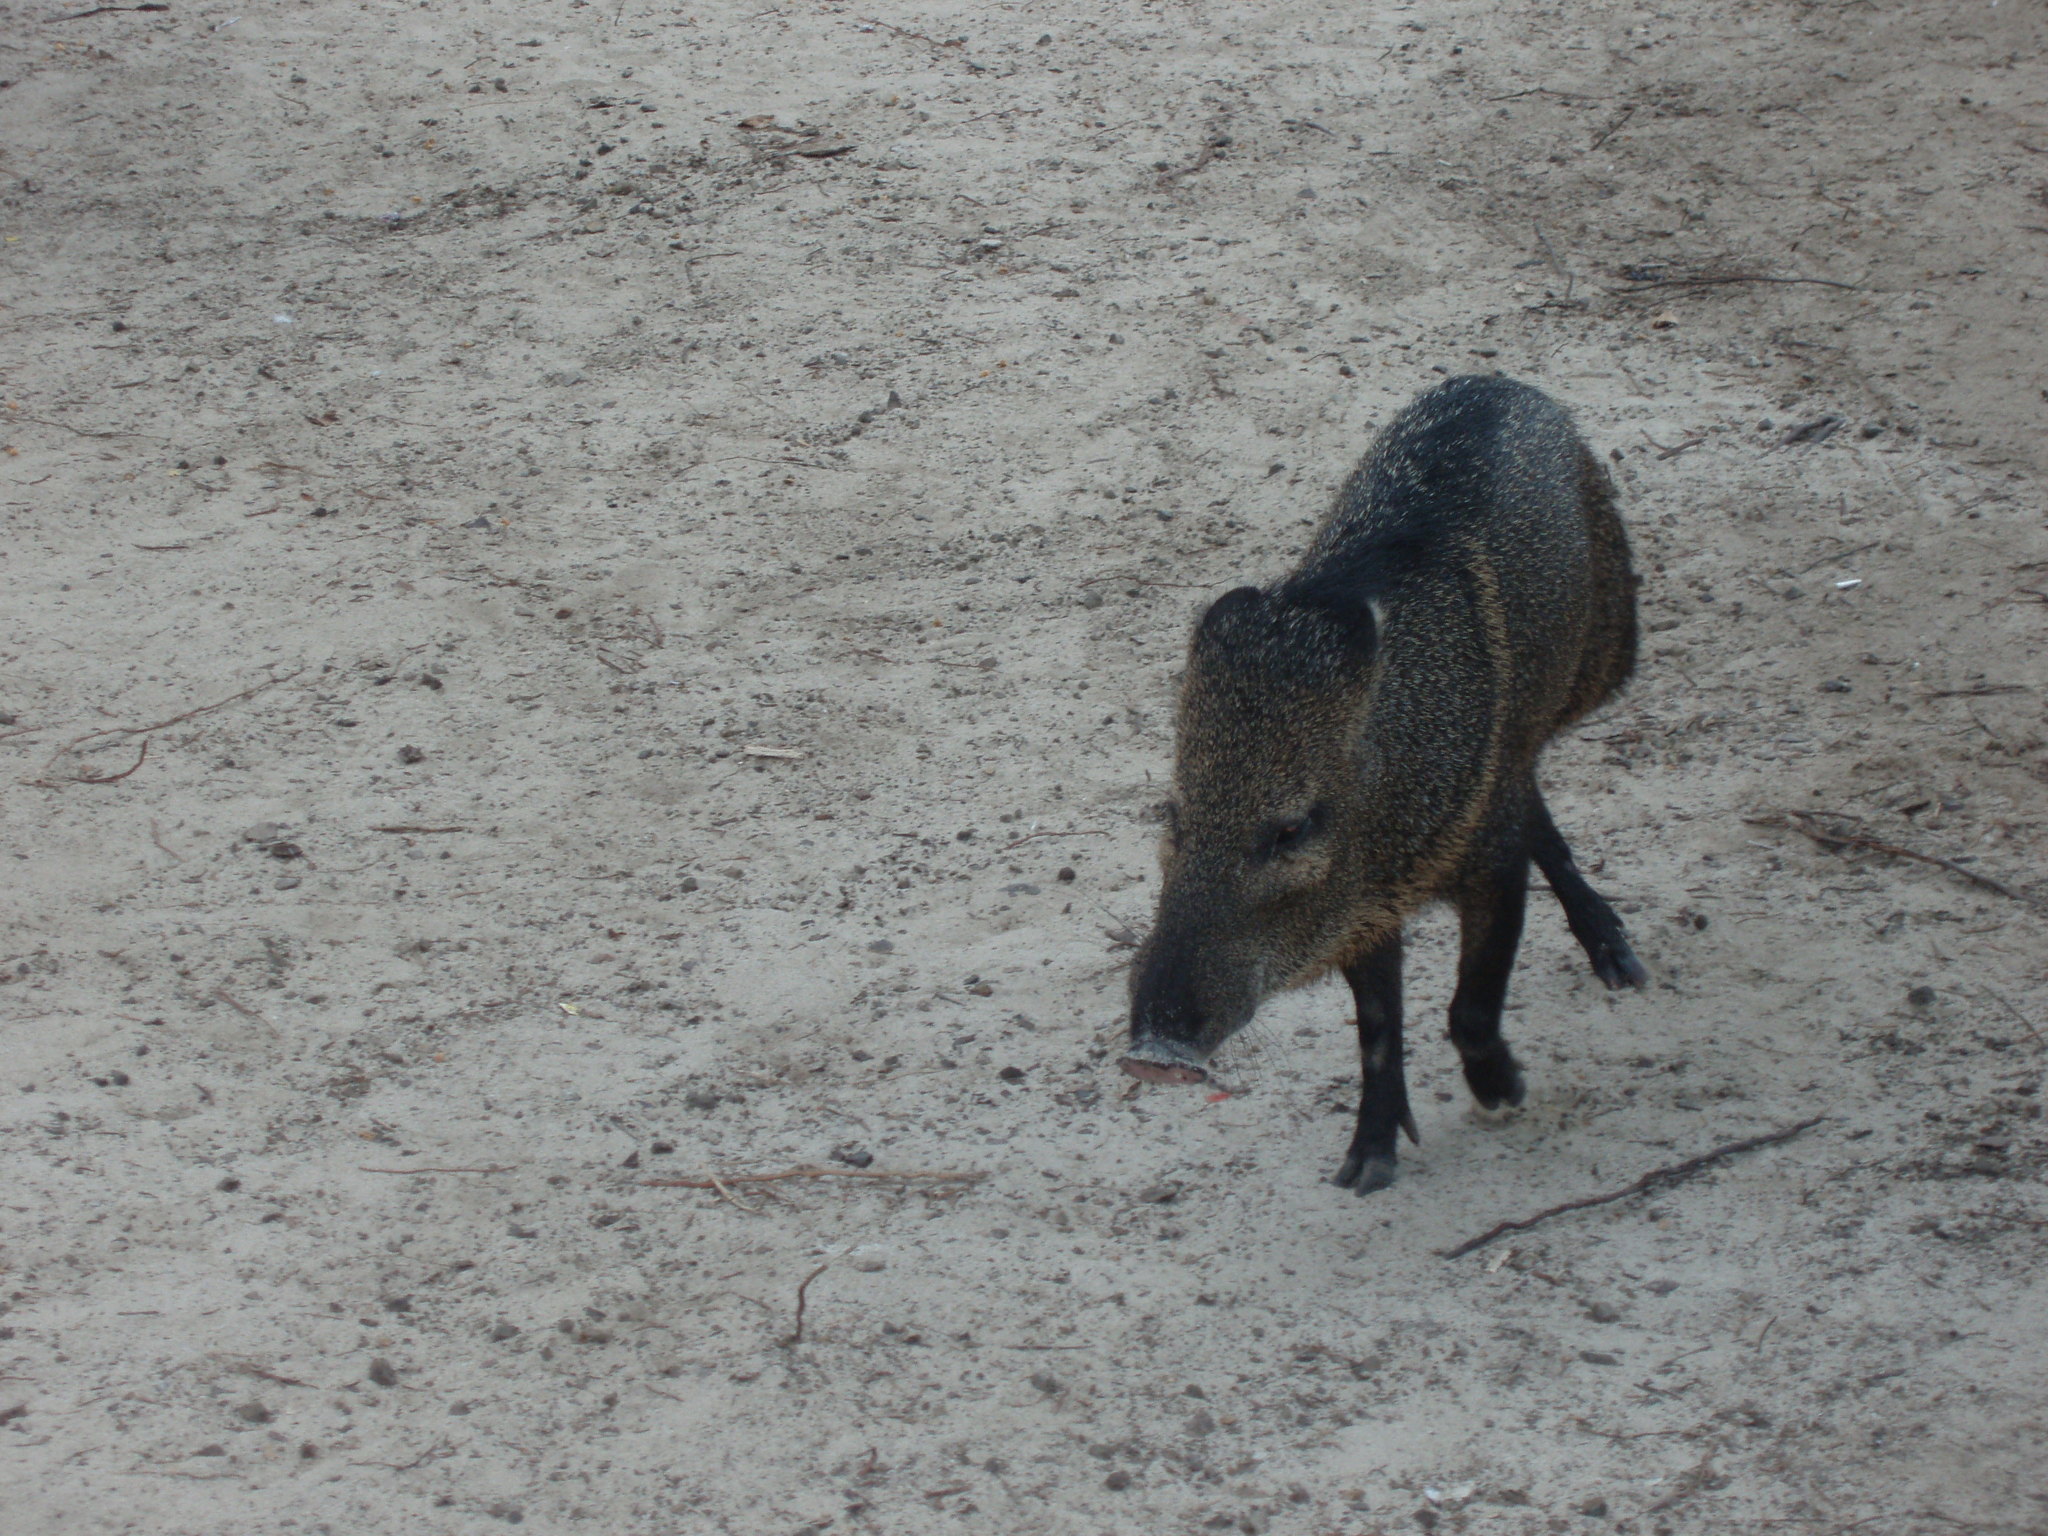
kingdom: Animalia
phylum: Chordata
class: Mammalia
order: Artiodactyla
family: Tayassuidae
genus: Pecari
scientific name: Pecari tajacu
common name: Collared peccary
